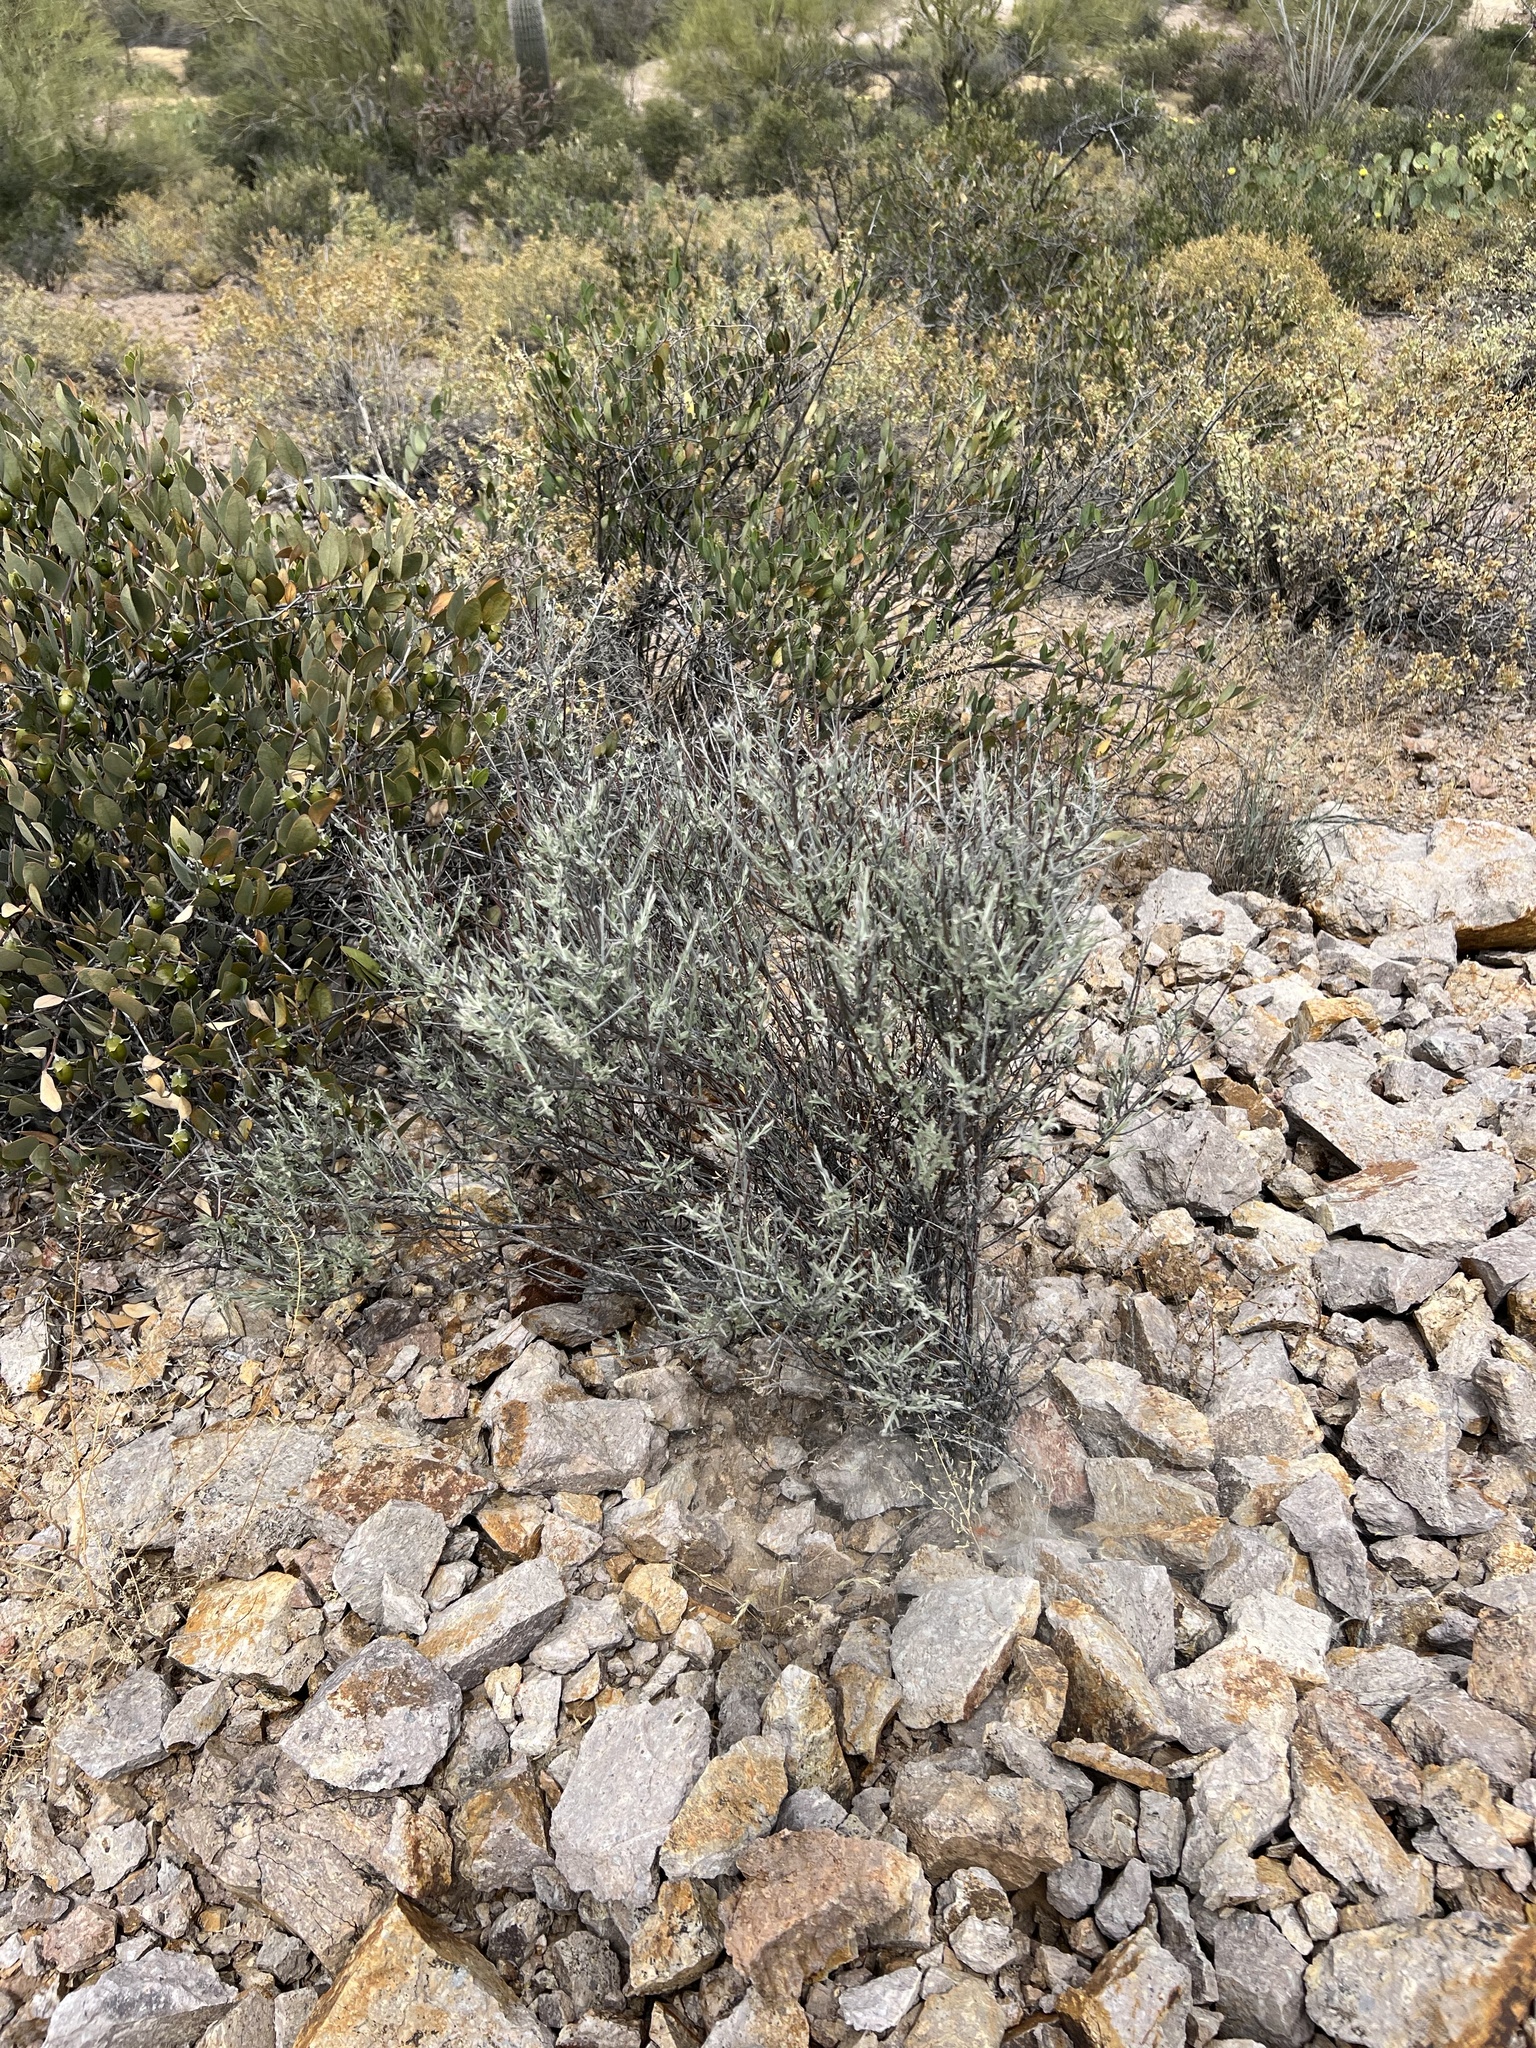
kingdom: Plantae
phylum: Tracheophyta
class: Magnoliopsida
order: Zygophyllales
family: Krameriaceae
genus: Krameria
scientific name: Krameria bicolor
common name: White ratany
